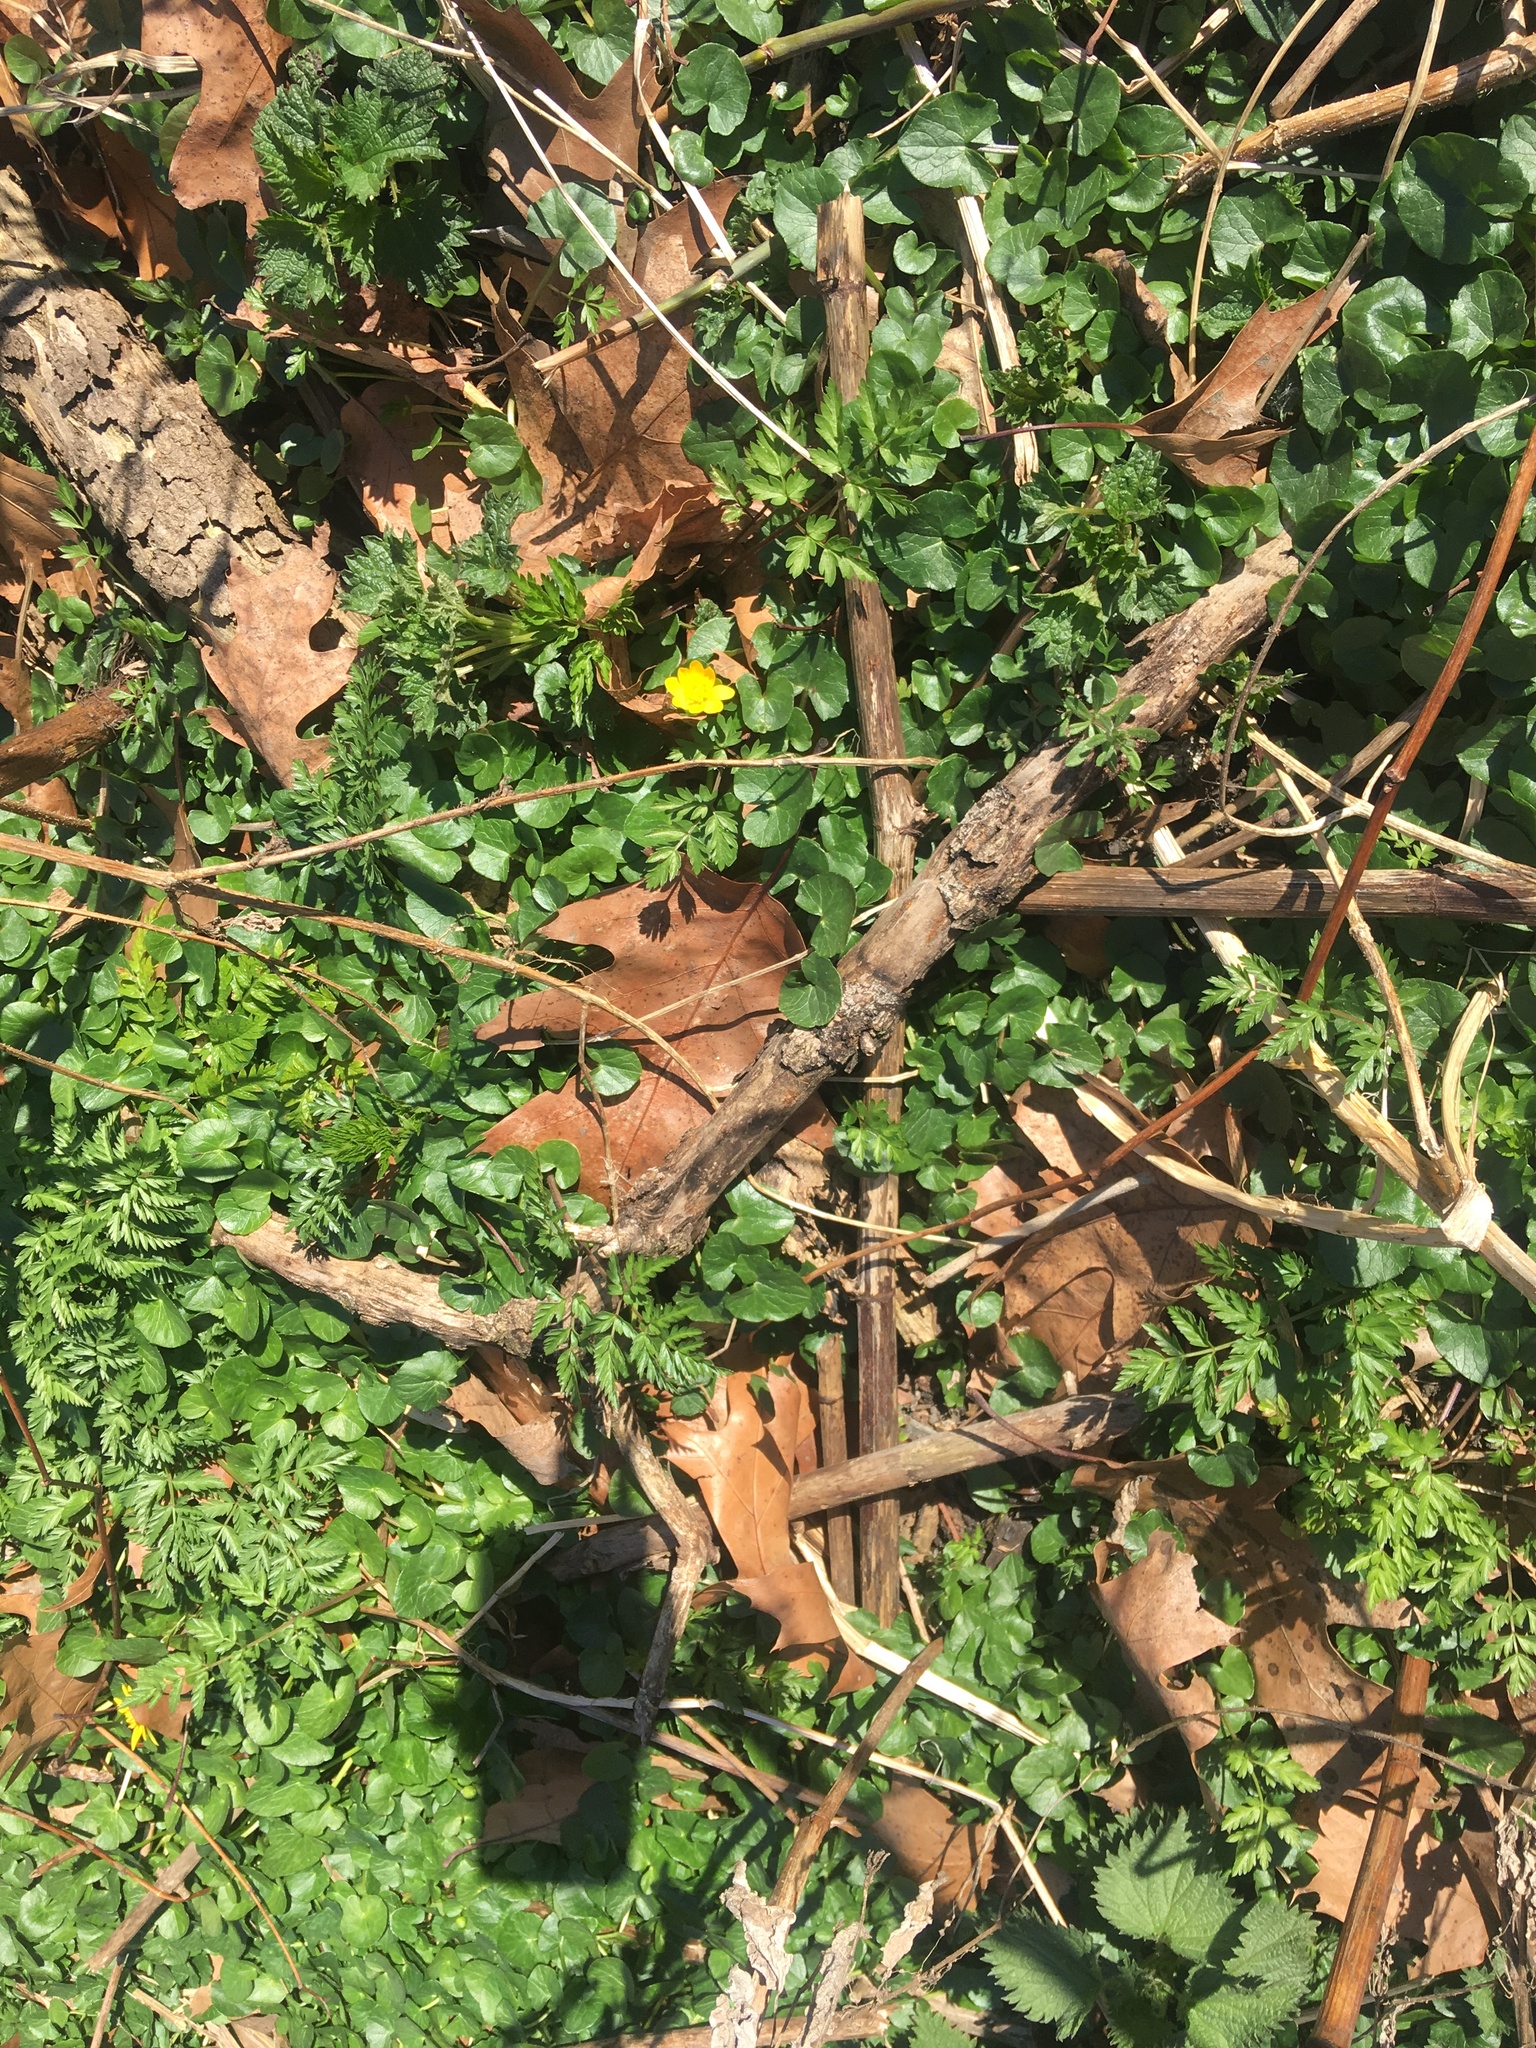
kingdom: Plantae
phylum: Tracheophyta
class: Magnoliopsida
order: Ranunculales
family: Ranunculaceae
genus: Ficaria
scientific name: Ficaria verna
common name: Lesser celandine
